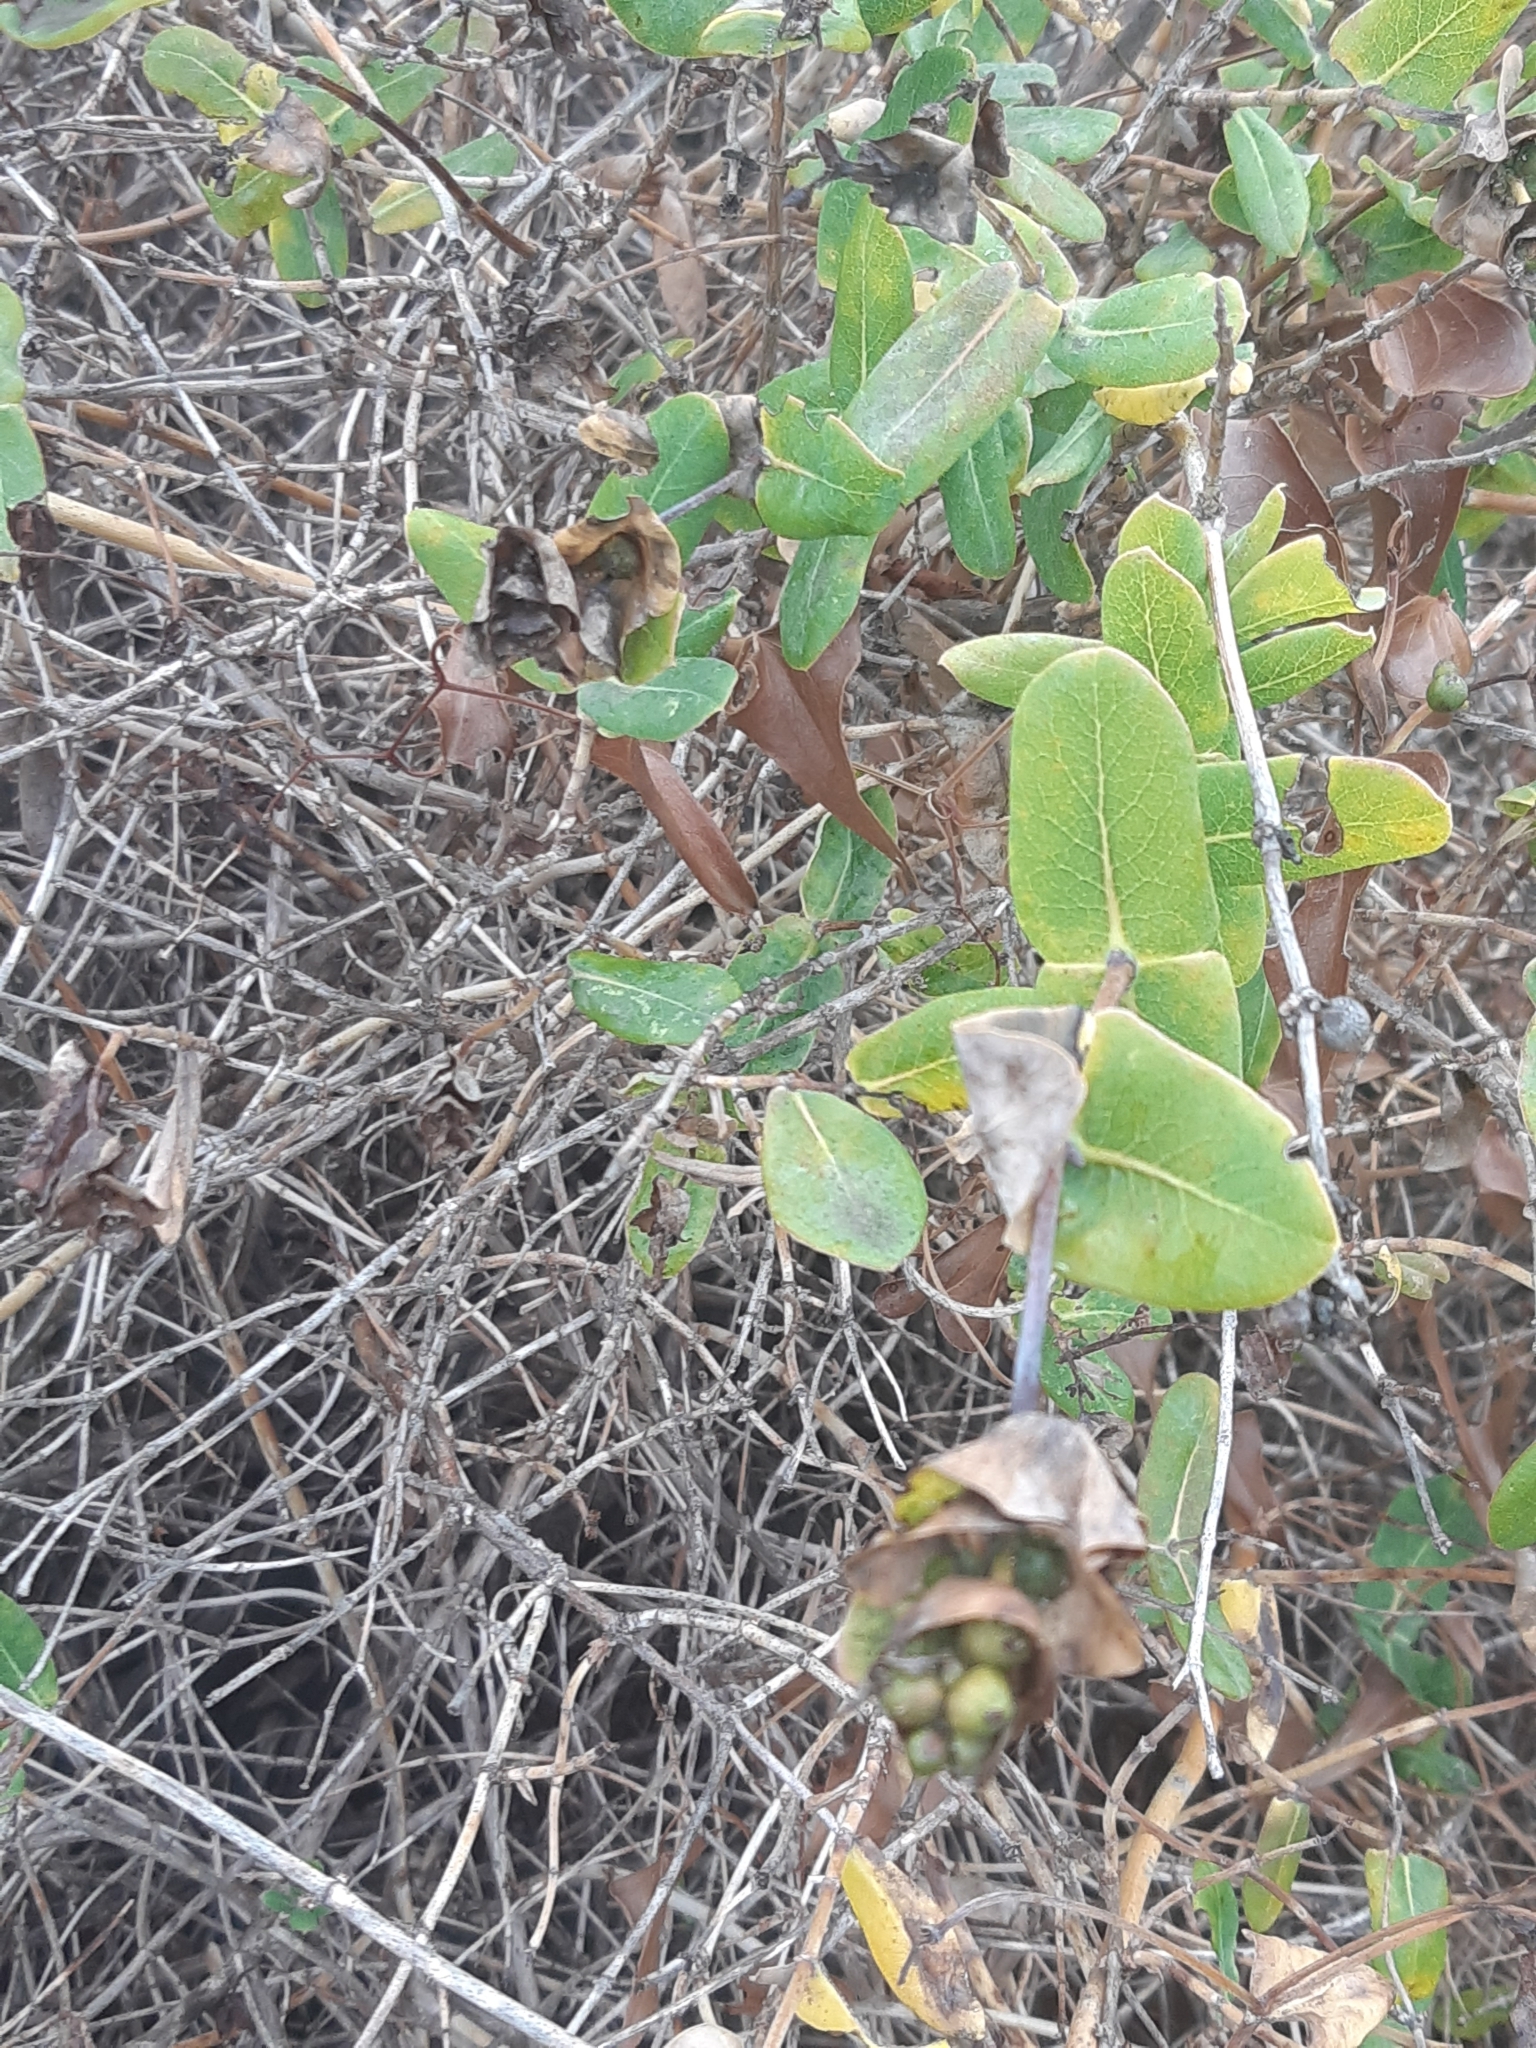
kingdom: Plantae
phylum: Tracheophyta
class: Magnoliopsida
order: Dipsacales
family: Caprifoliaceae
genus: Lonicera
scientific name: Lonicera implexa
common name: Minorca honeysuckle
